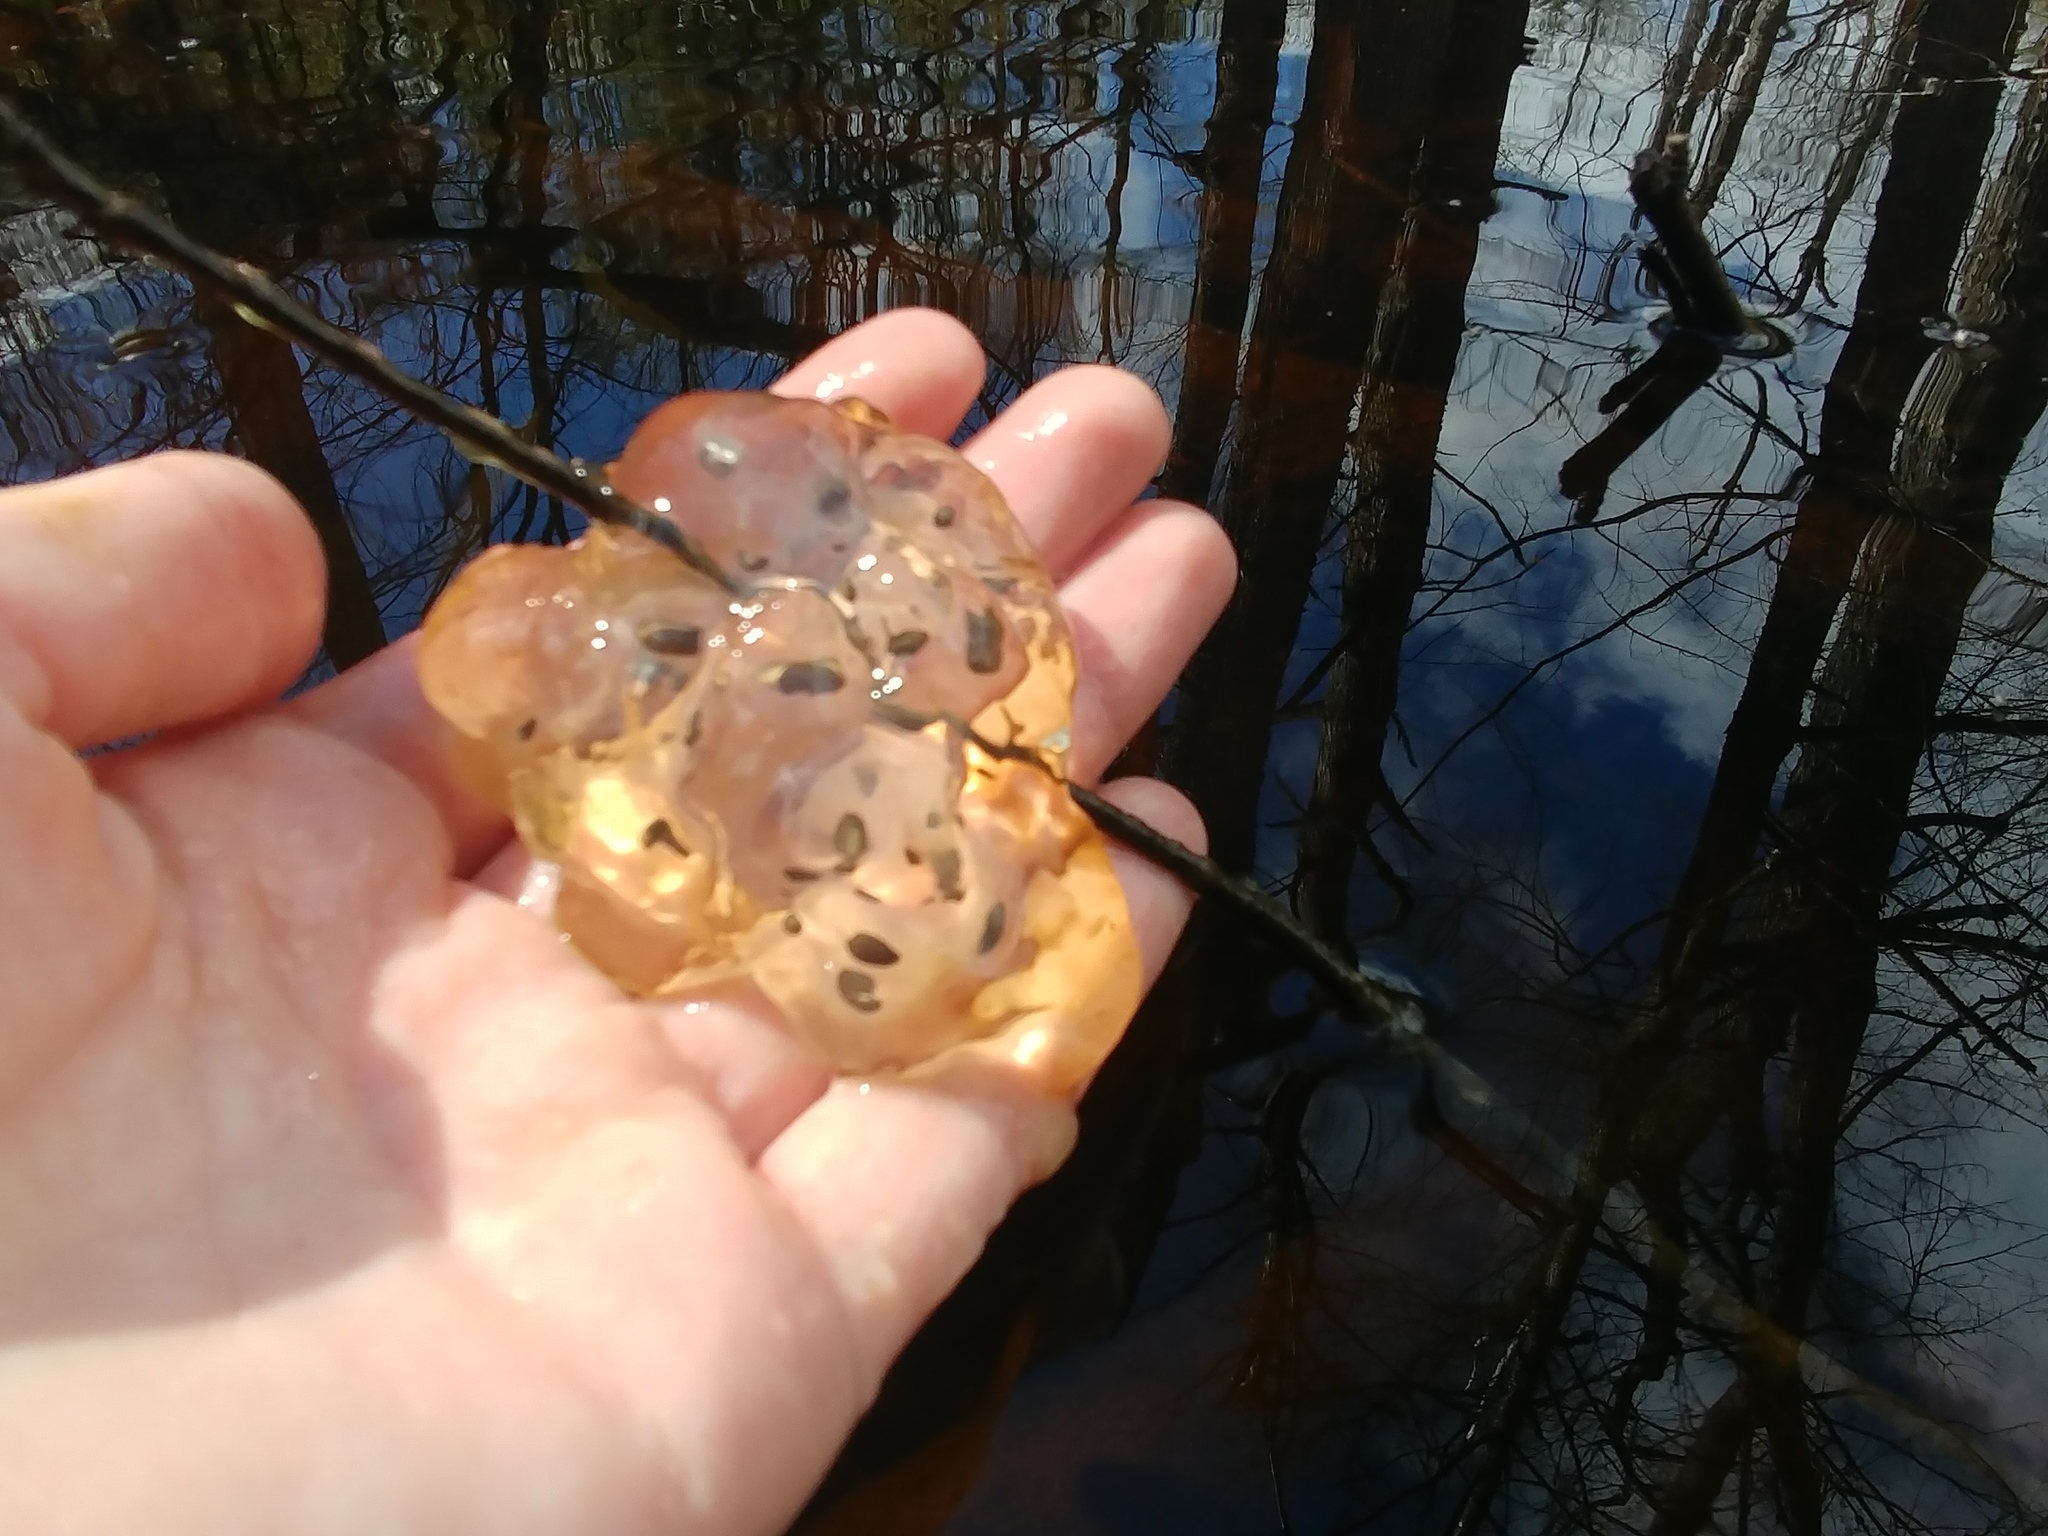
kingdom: Animalia
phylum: Chordata
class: Amphibia
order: Caudata
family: Ambystomatidae
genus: Ambystoma
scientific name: Ambystoma maculatum
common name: Spotted salamander
